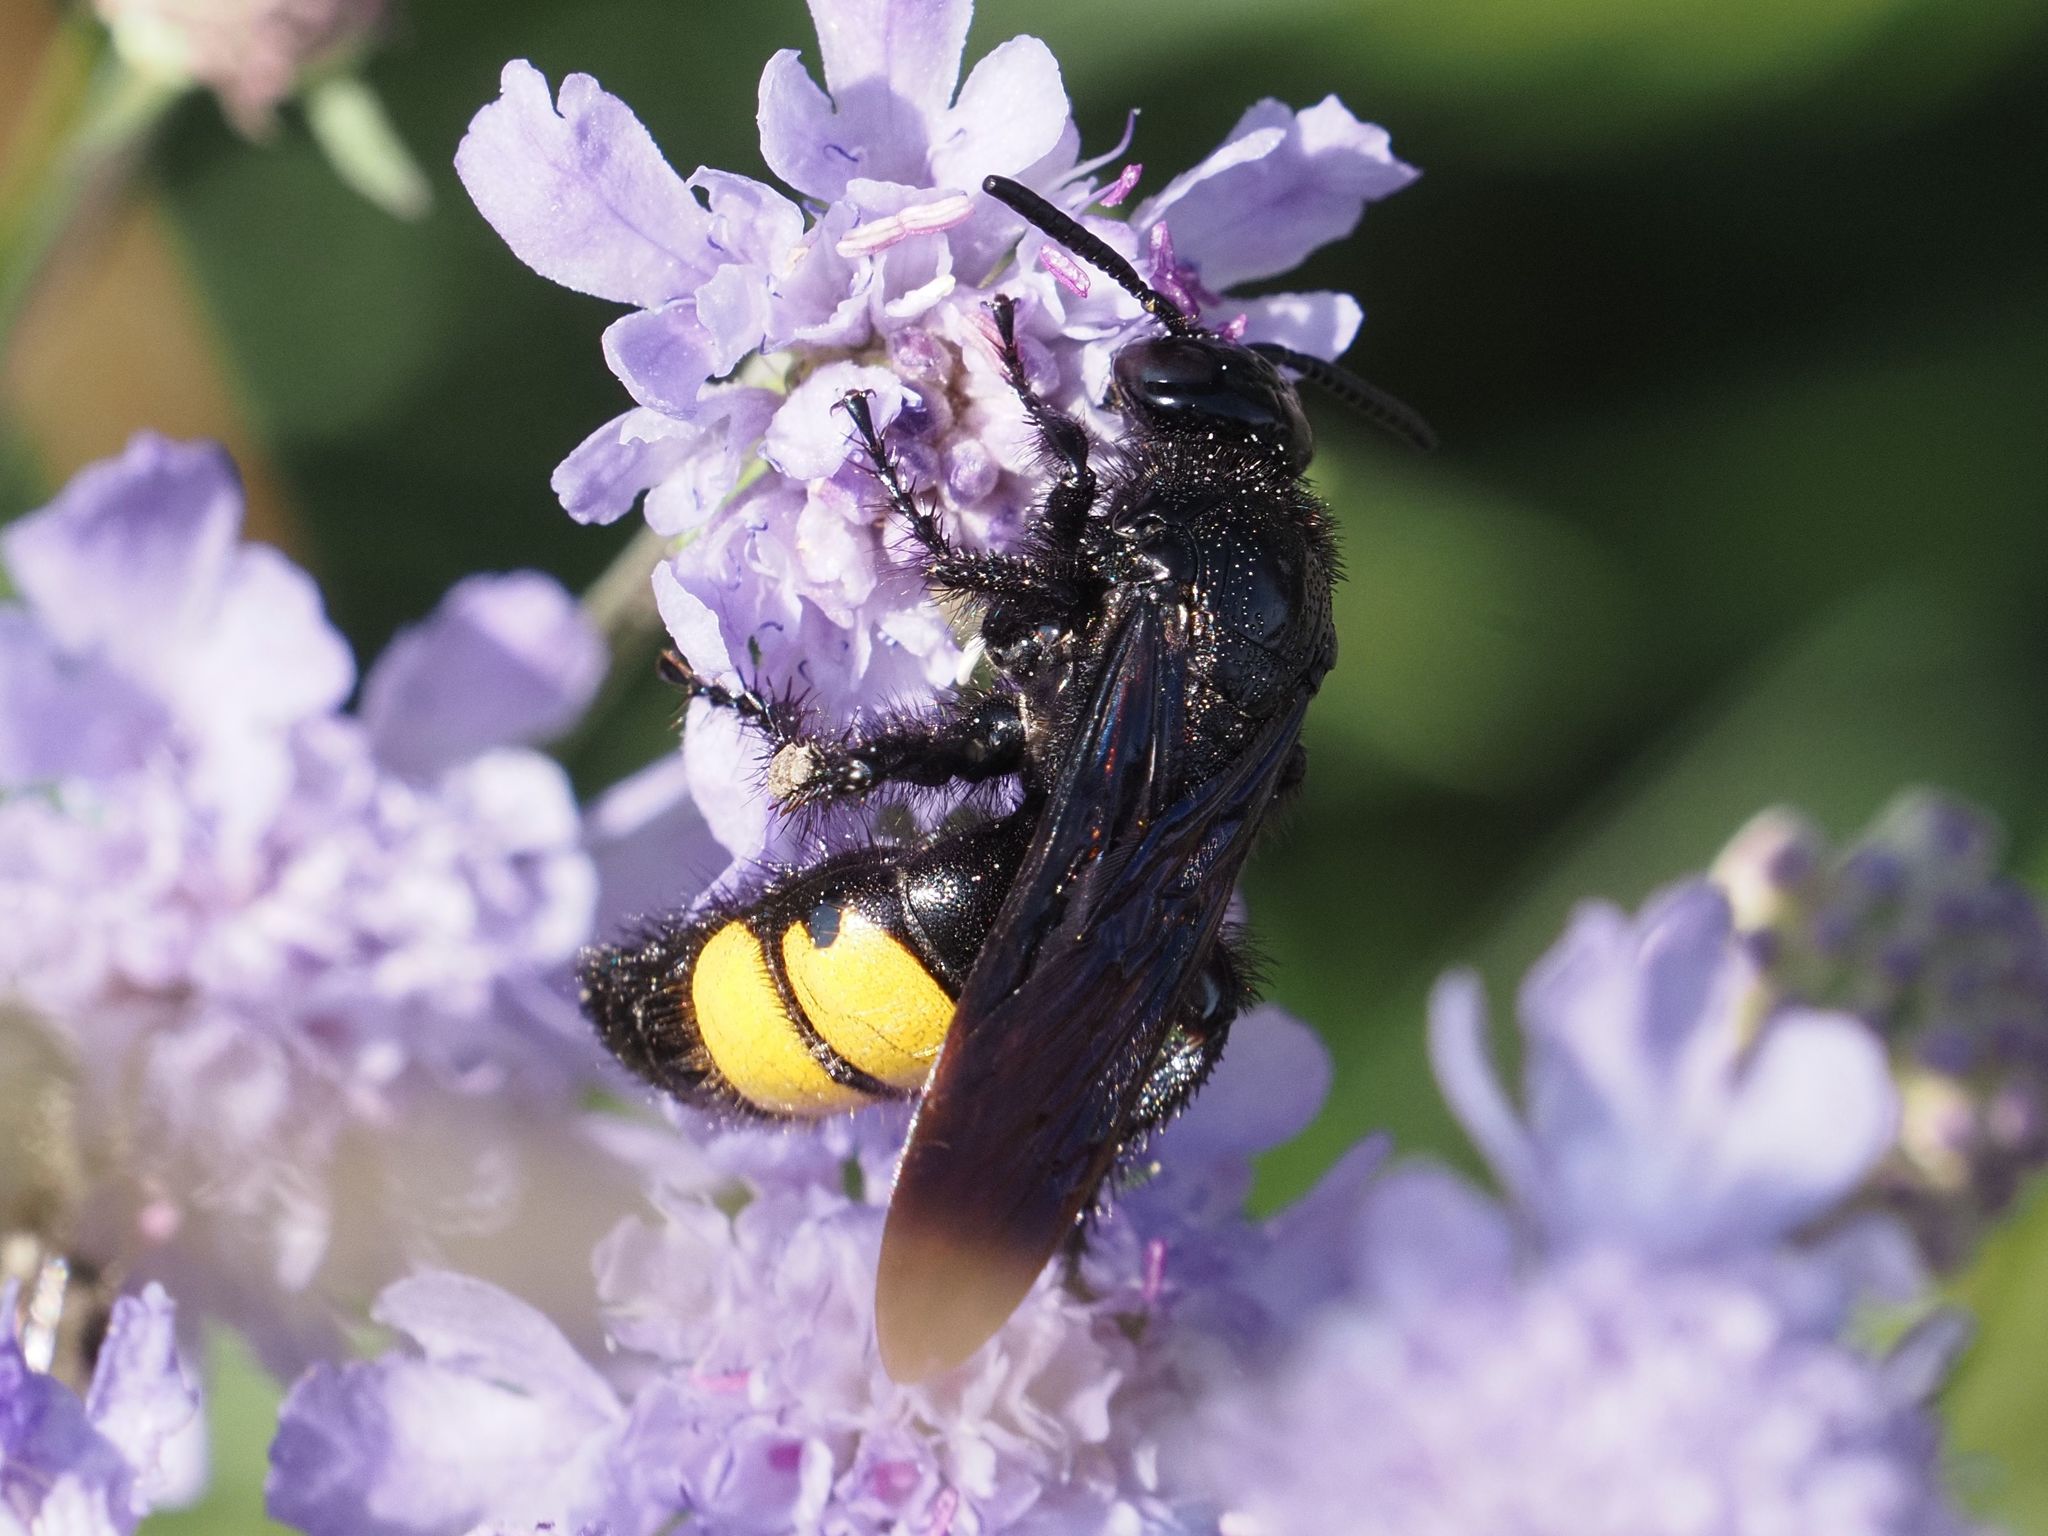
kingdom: Animalia
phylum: Arthropoda
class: Insecta
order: Hymenoptera
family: Scoliidae
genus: Scolia
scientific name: Scolia hirta
